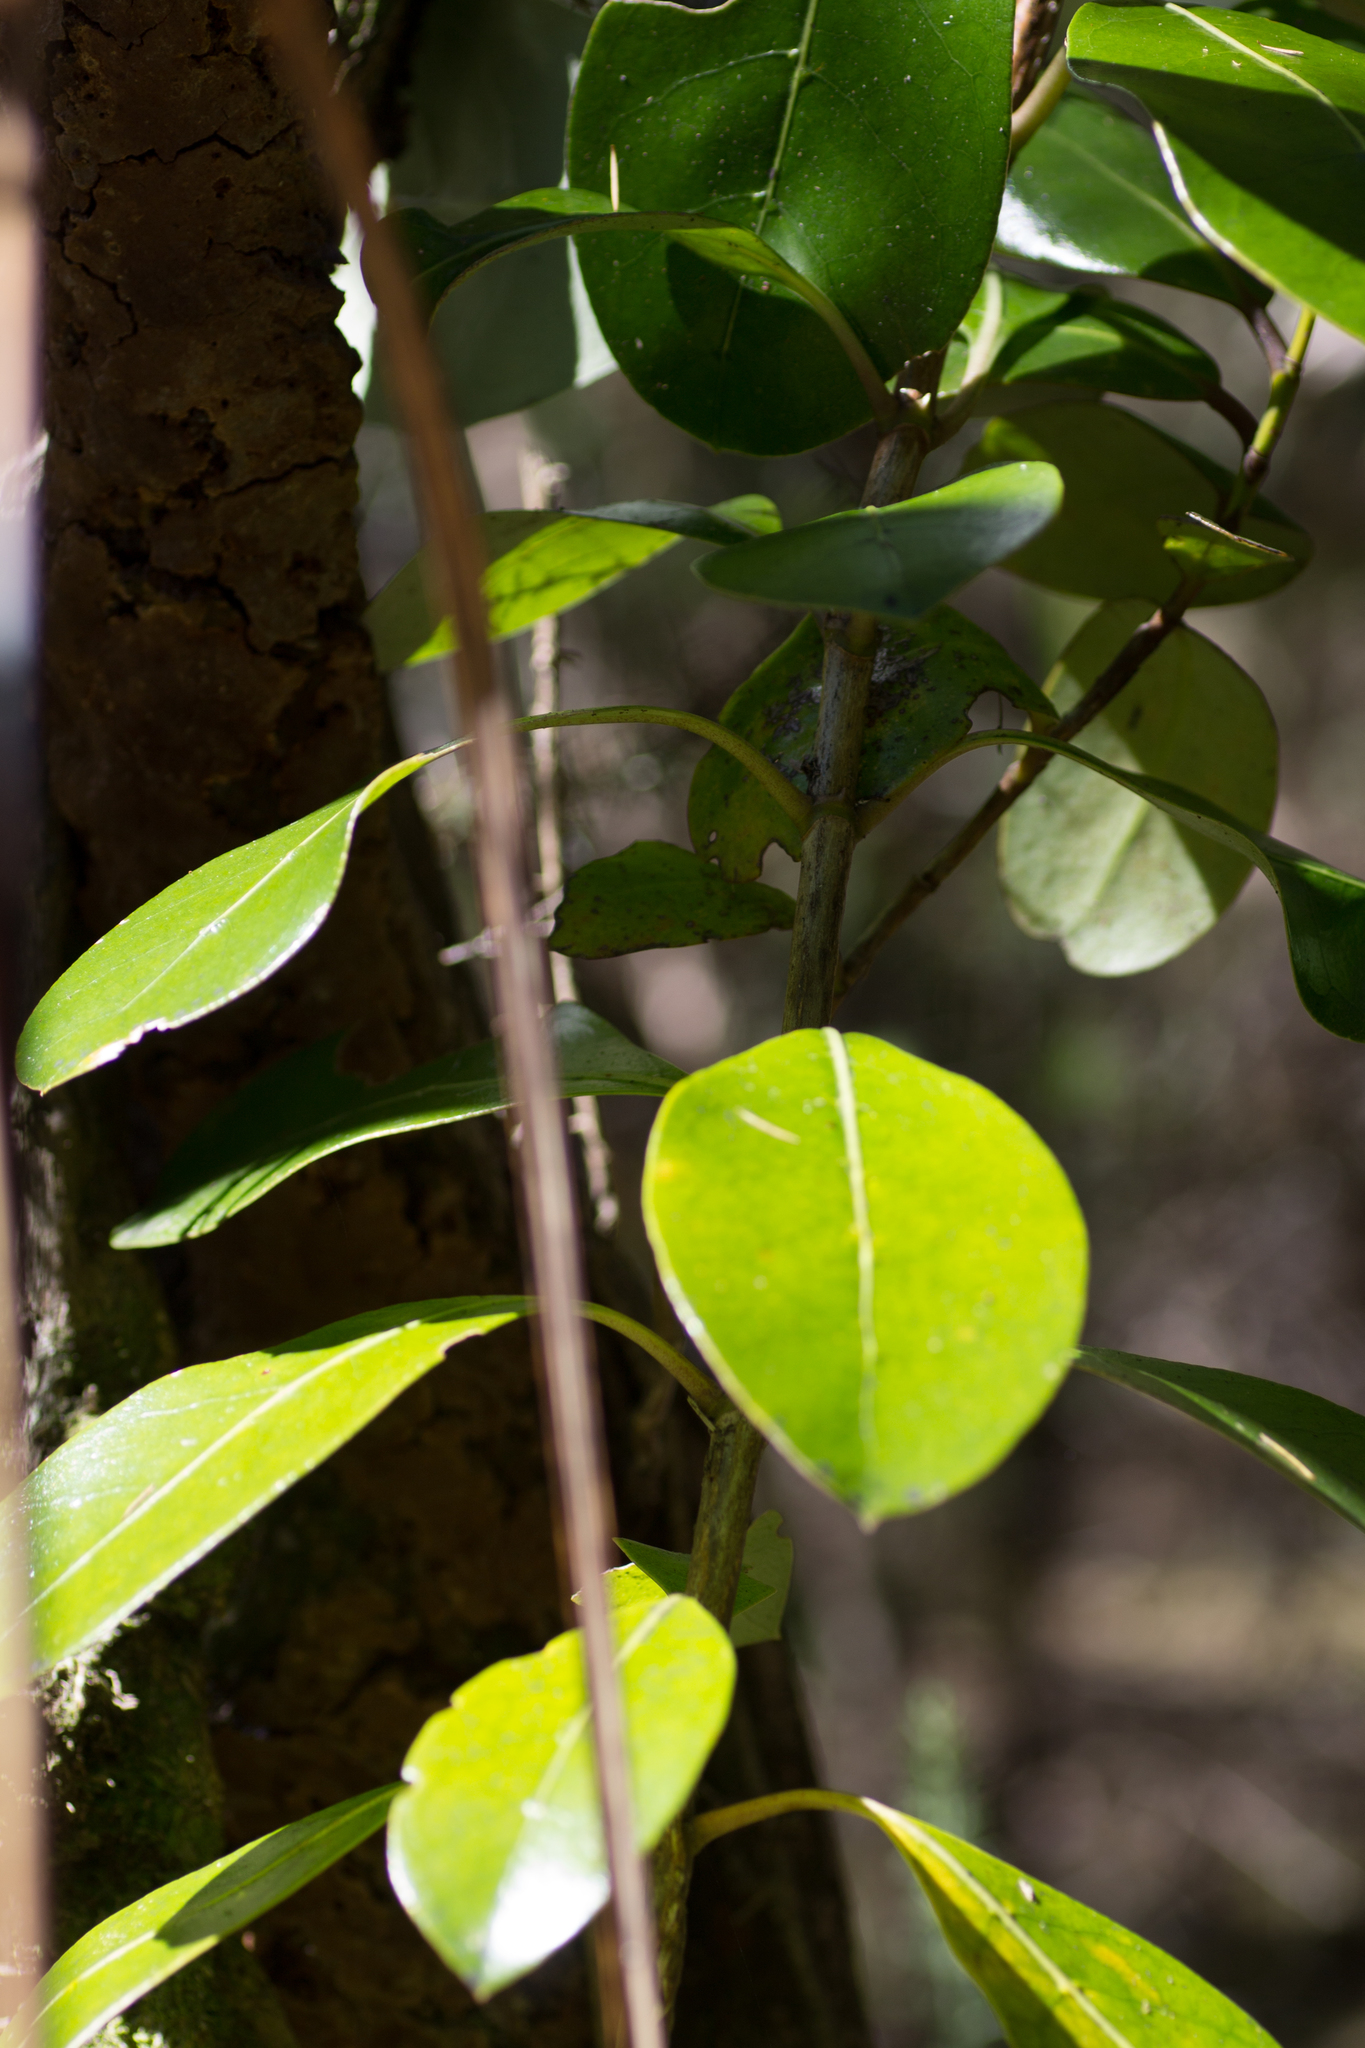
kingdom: Plantae
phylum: Tracheophyta
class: Magnoliopsida
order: Gentianales
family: Rubiaceae
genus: Coprosma
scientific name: Coprosma lucida
